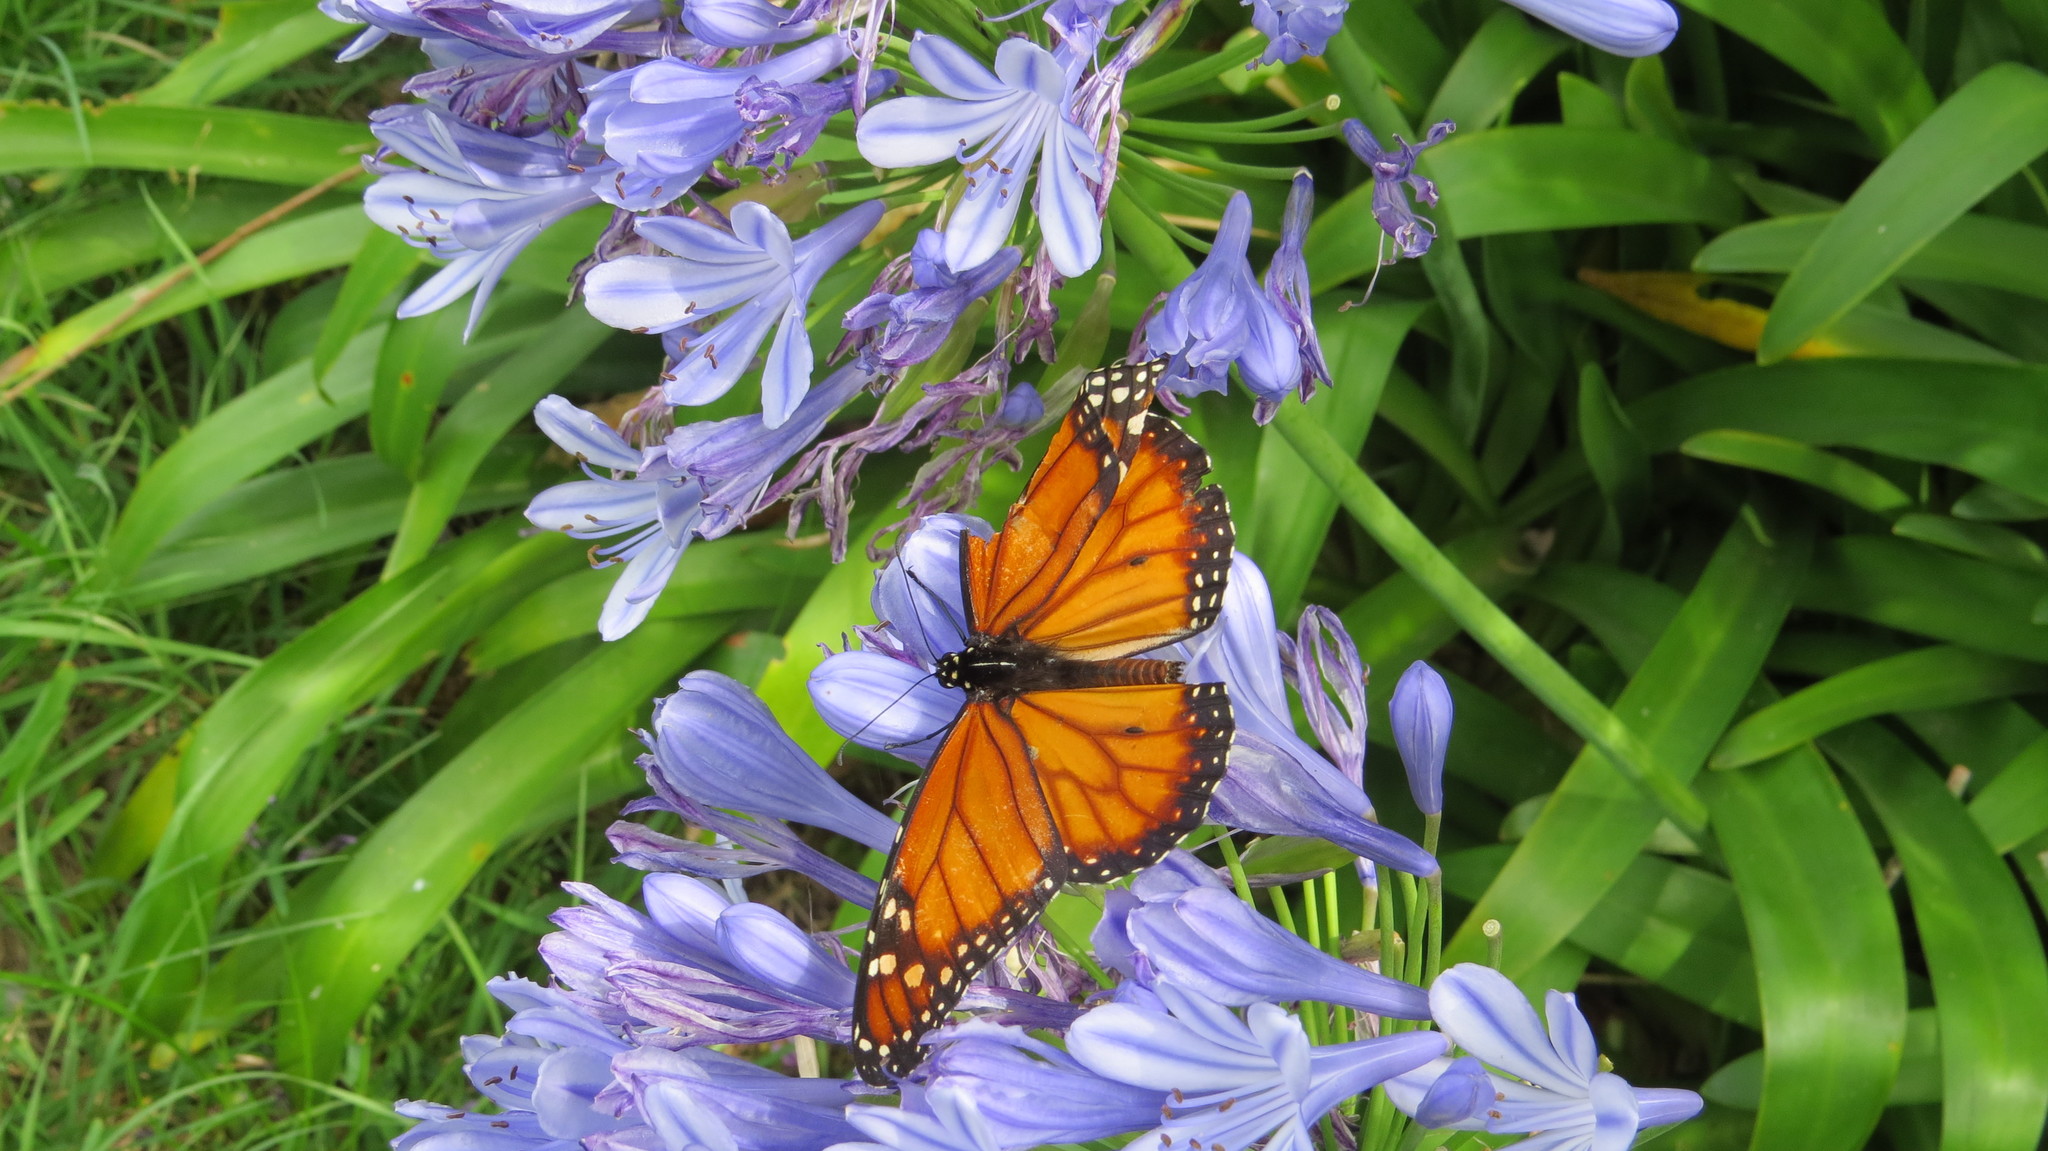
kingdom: Animalia
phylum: Arthropoda
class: Insecta
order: Lepidoptera
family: Nymphalidae
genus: Danaus
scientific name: Danaus erippus
